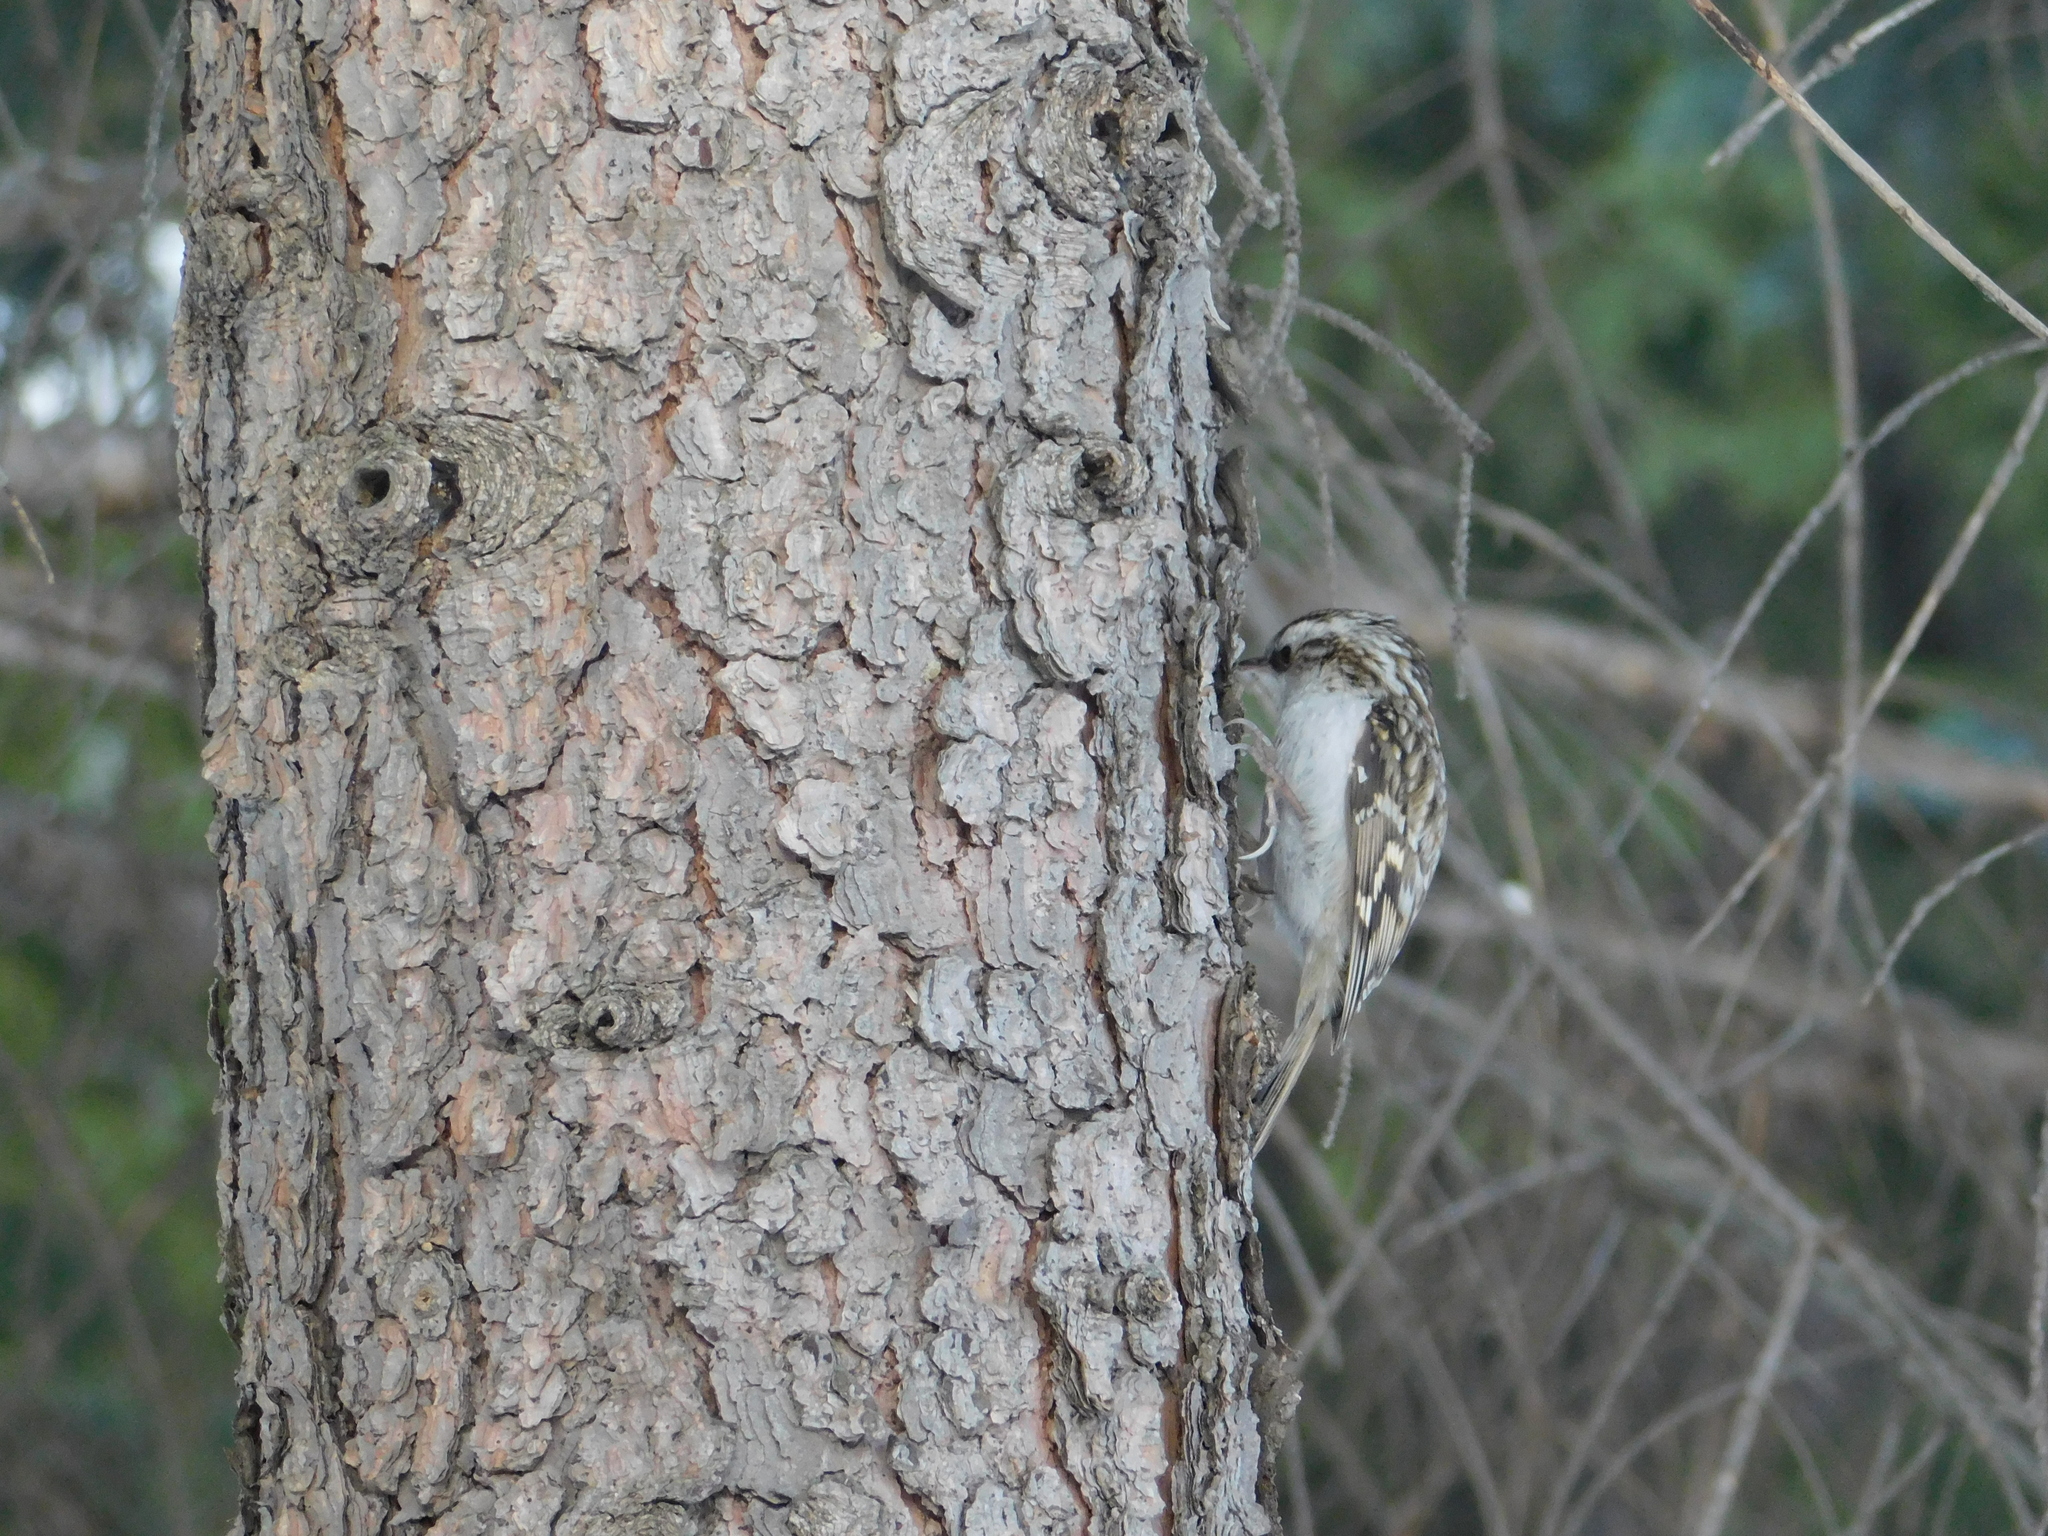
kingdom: Animalia
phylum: Chordata
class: Aves
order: Passeriformes
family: Certhiidae
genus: Certhia
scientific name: Certhia familiaris
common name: Eurasian treecreeper
